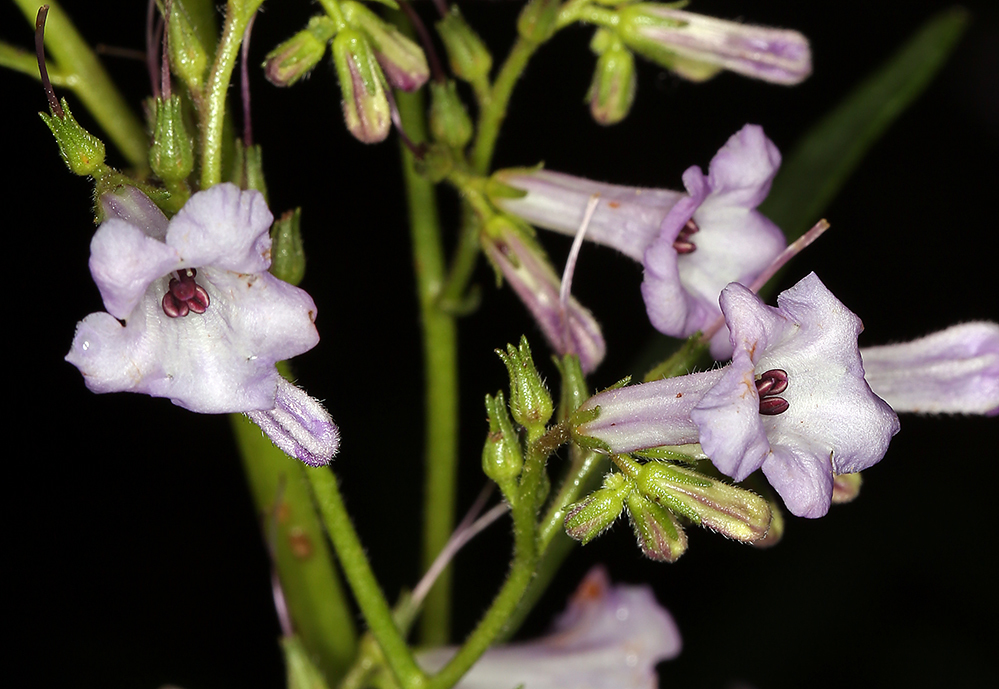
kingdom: Plantae
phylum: Tracheophyta
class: Magnoliopsida
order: Boraginales
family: Namaceae
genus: Eriodictyon
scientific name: Eriodictyon californicum
